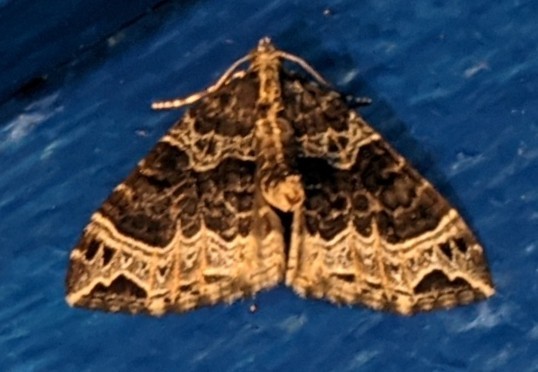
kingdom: Animalia
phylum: Arthropoda
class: Insecta
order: Lepidoptera
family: Geometridae
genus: Ecliptopera
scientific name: Ecliptopera silaceata
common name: Small phoenix
